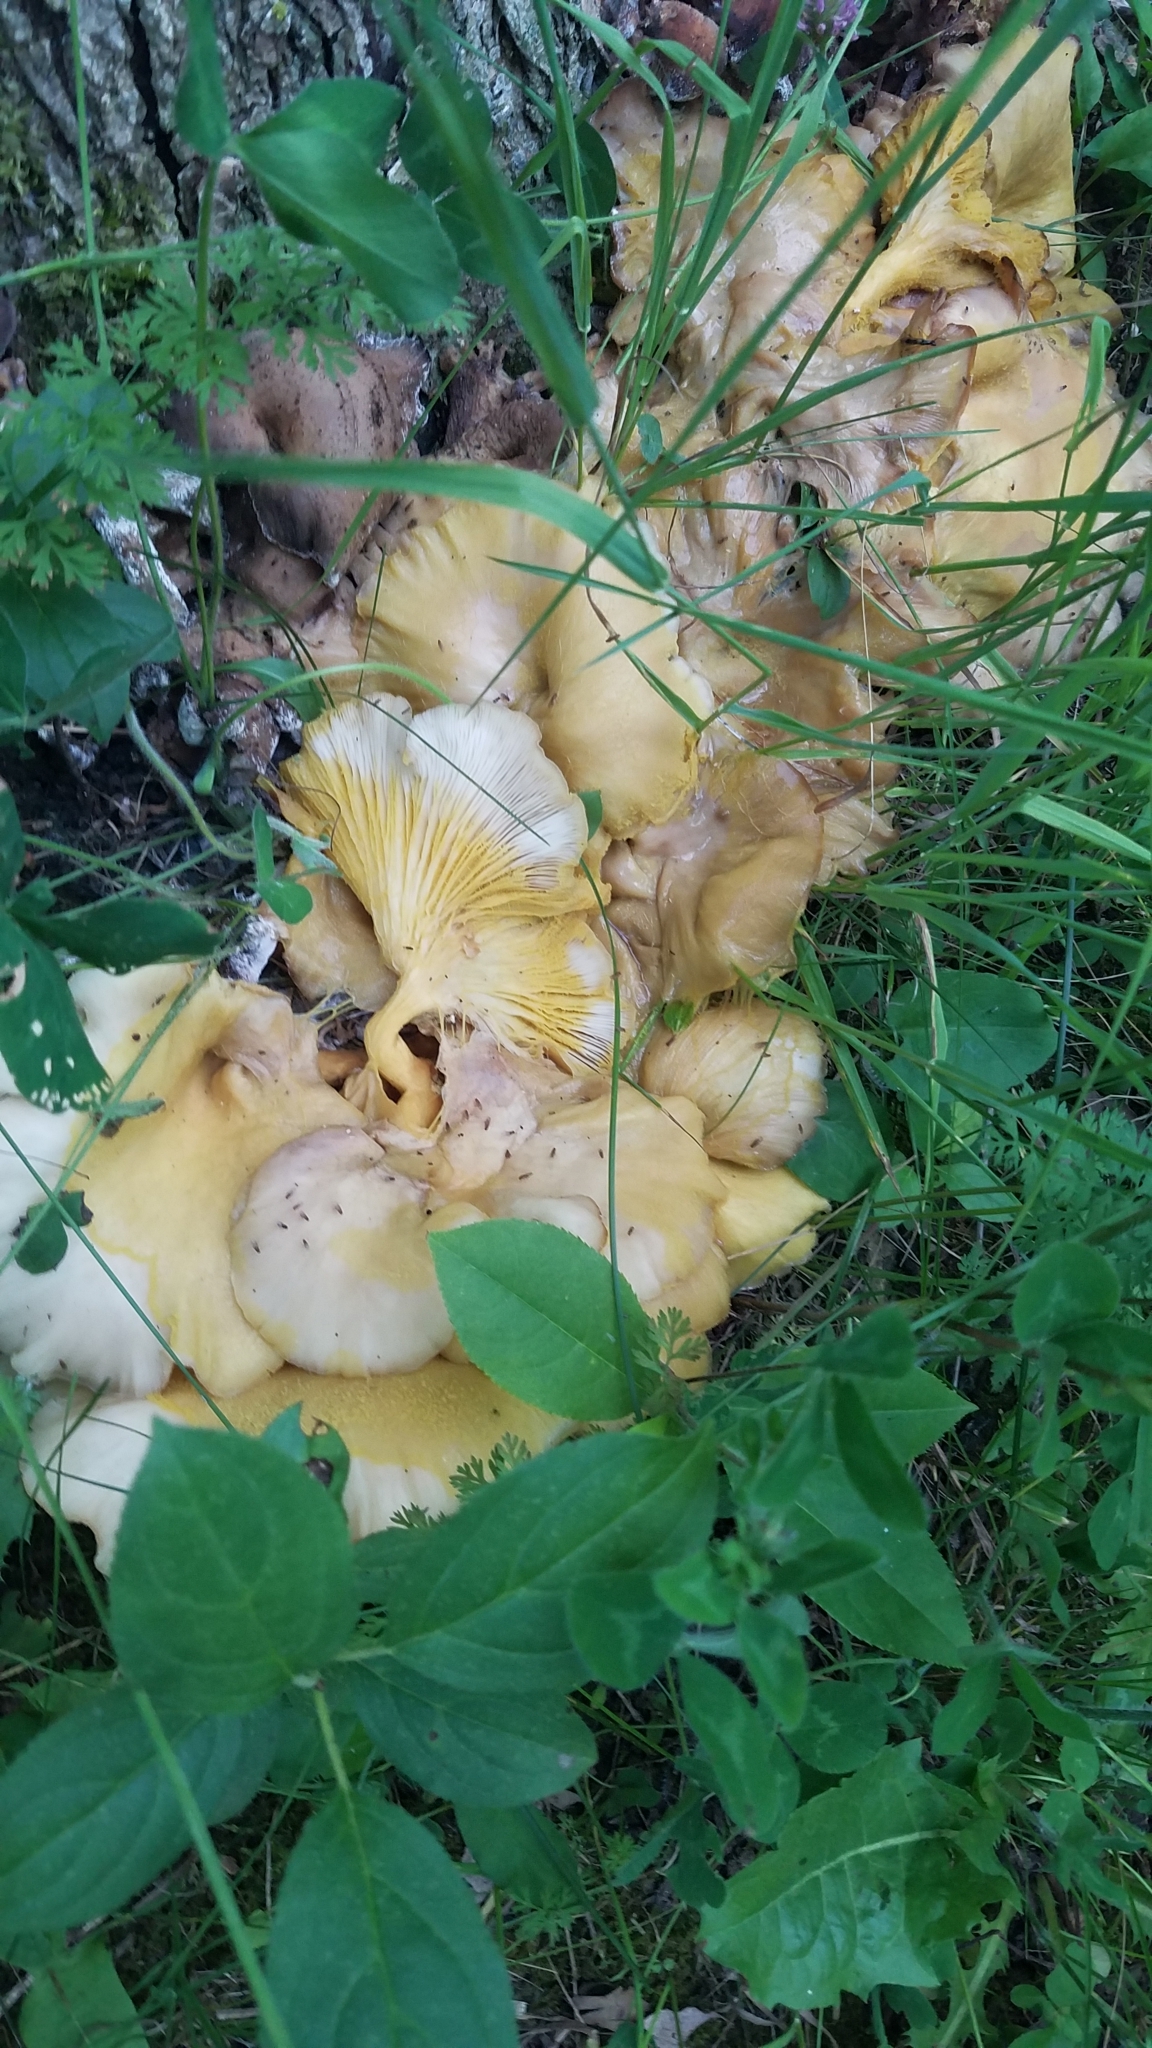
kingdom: Fungi
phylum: Basidiomycota
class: Agaricomycetes
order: Agaricales
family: Pleurotaceae
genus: Pleurotus
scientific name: Pleurotus citrinopileatus
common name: Golden oyster mushroom
